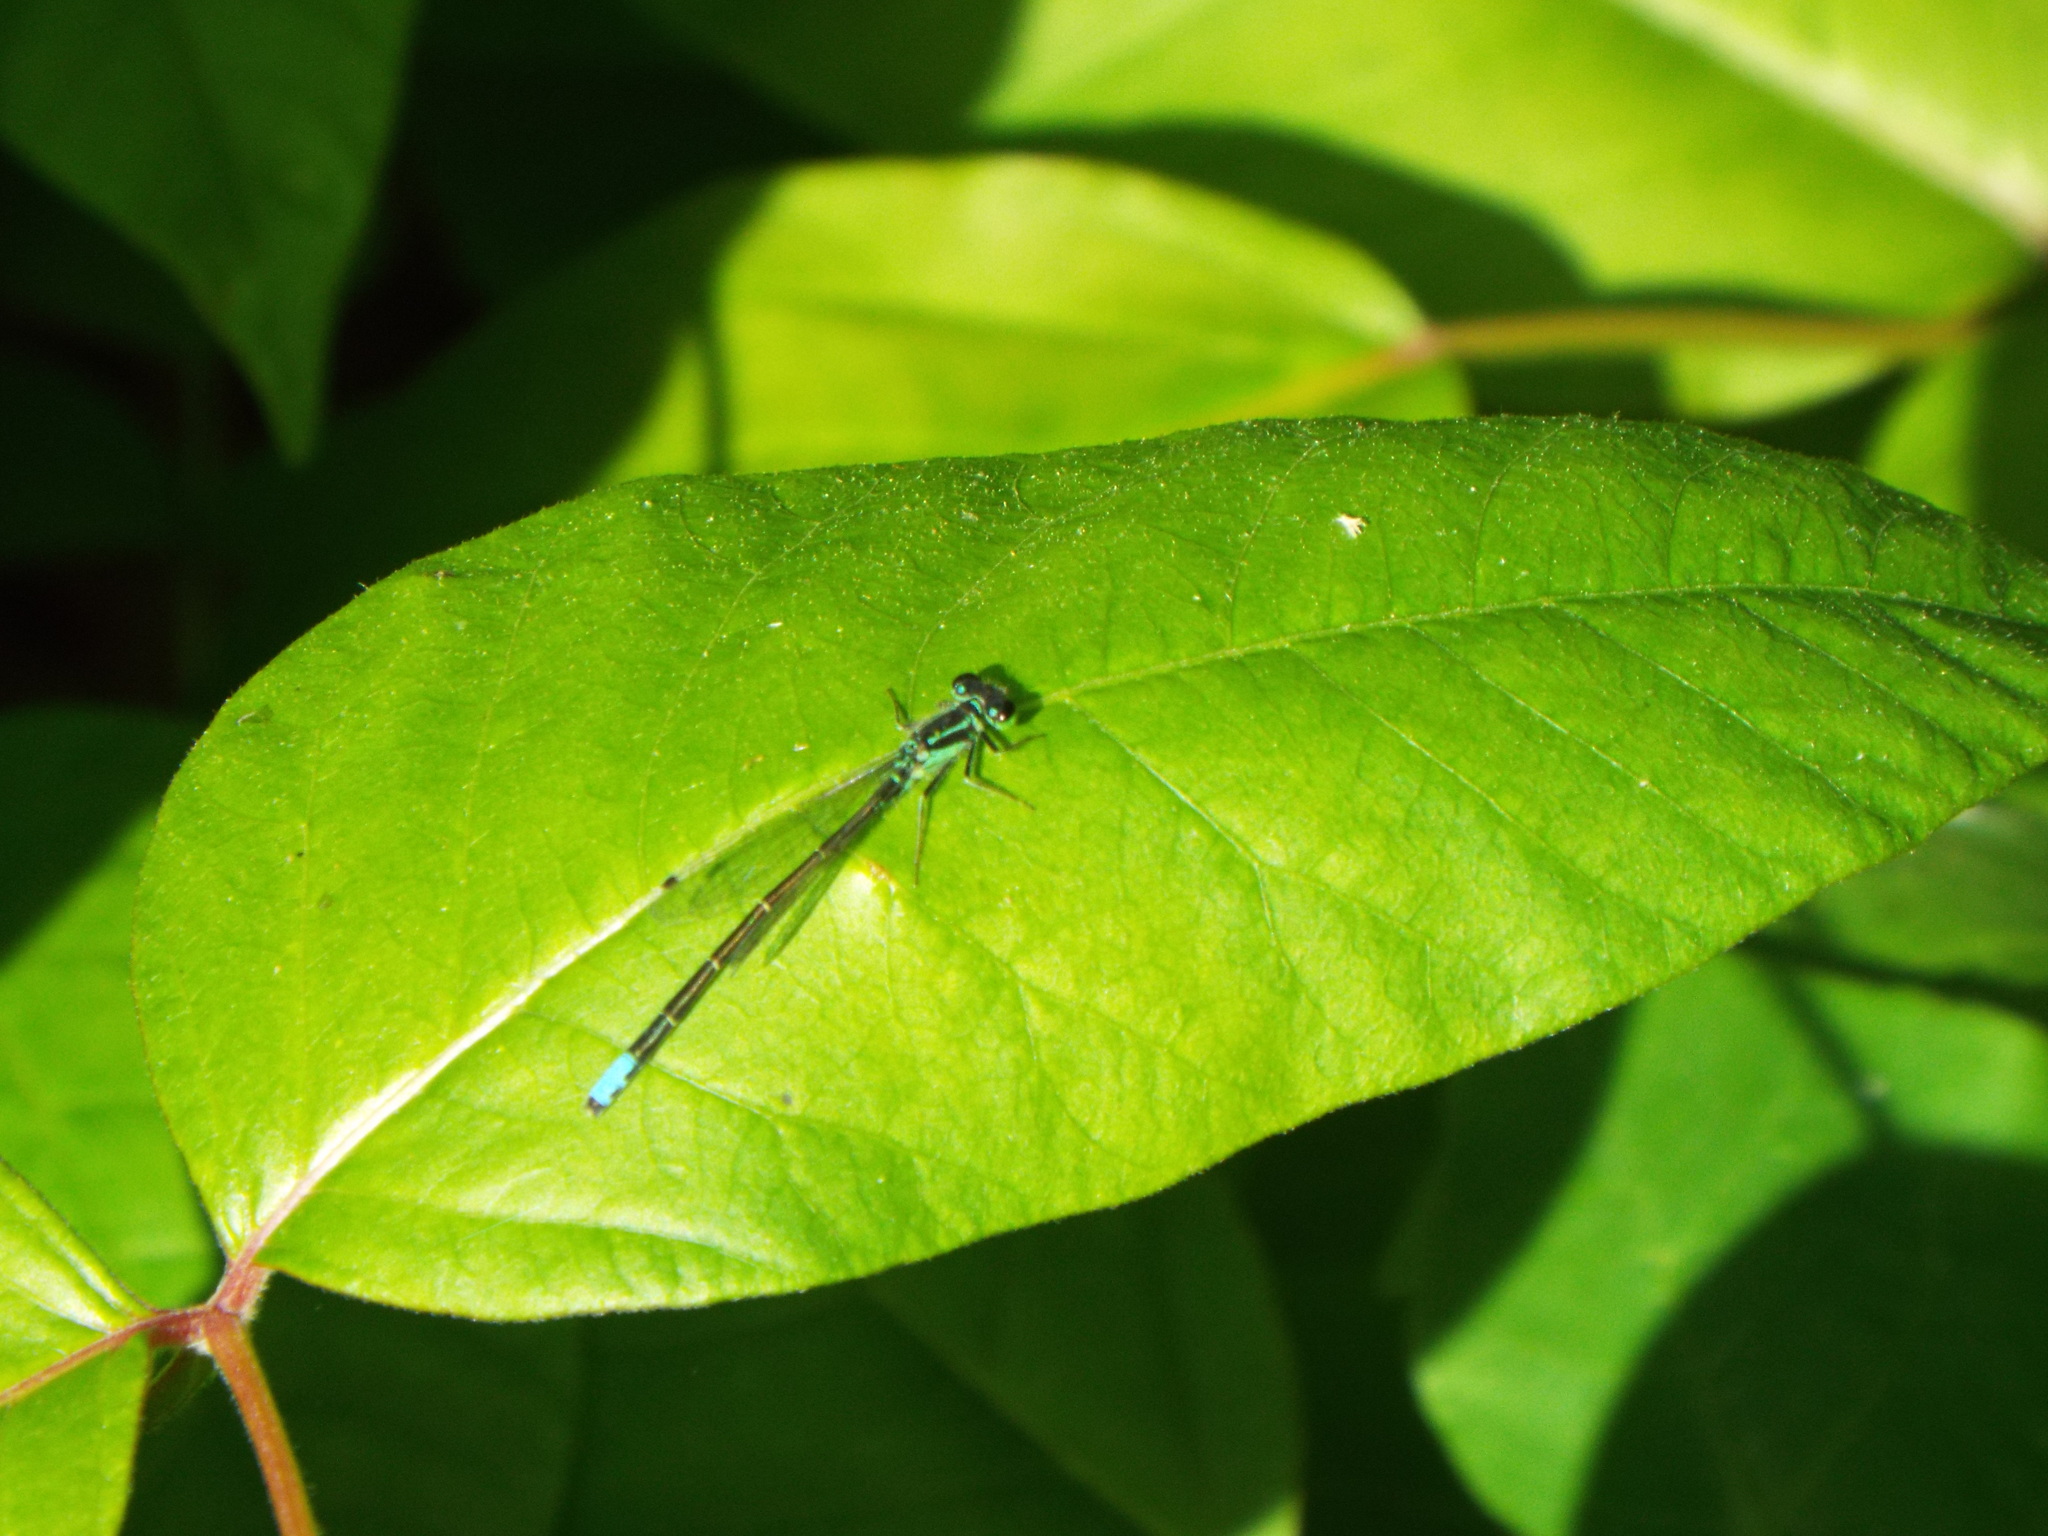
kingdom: Animalia
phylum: Arthropoda
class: Insecta
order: Odonata
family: Coenagrionidae
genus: Ischnura
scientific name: Ischnura verticalis
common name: Eastern forktail
